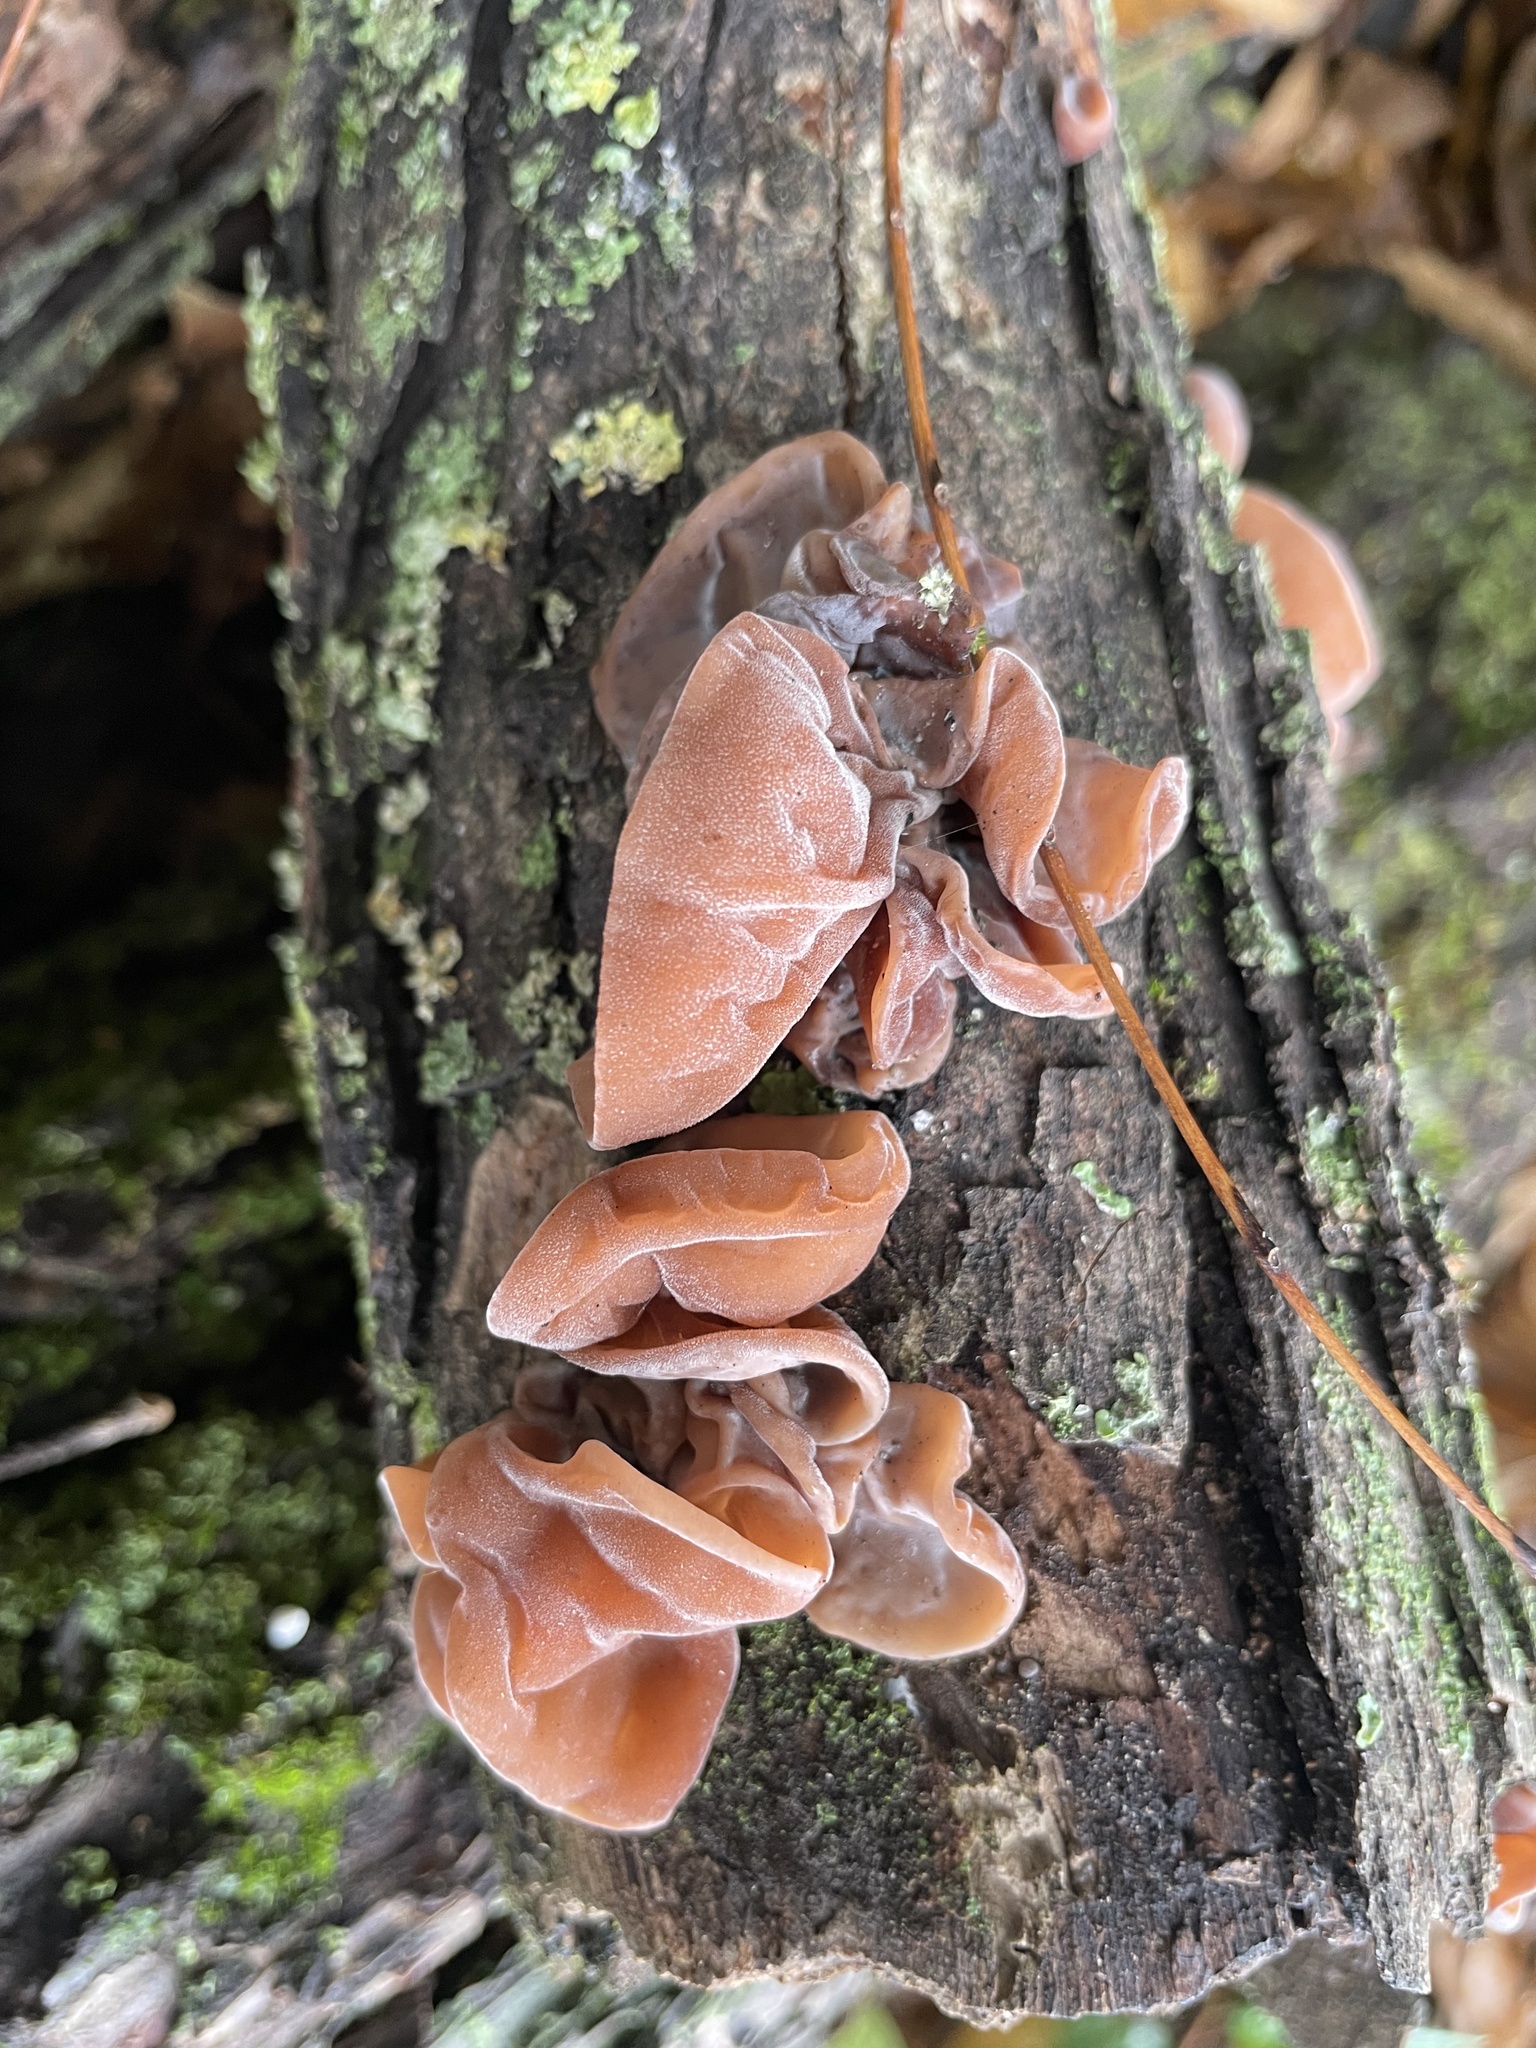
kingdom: Fungi
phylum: Basidiomycota
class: Agaricomycetes
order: Auriculariales
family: Auriculariaceae
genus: Auricularia
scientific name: Auricularia auricula-judae
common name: Jelly ear
